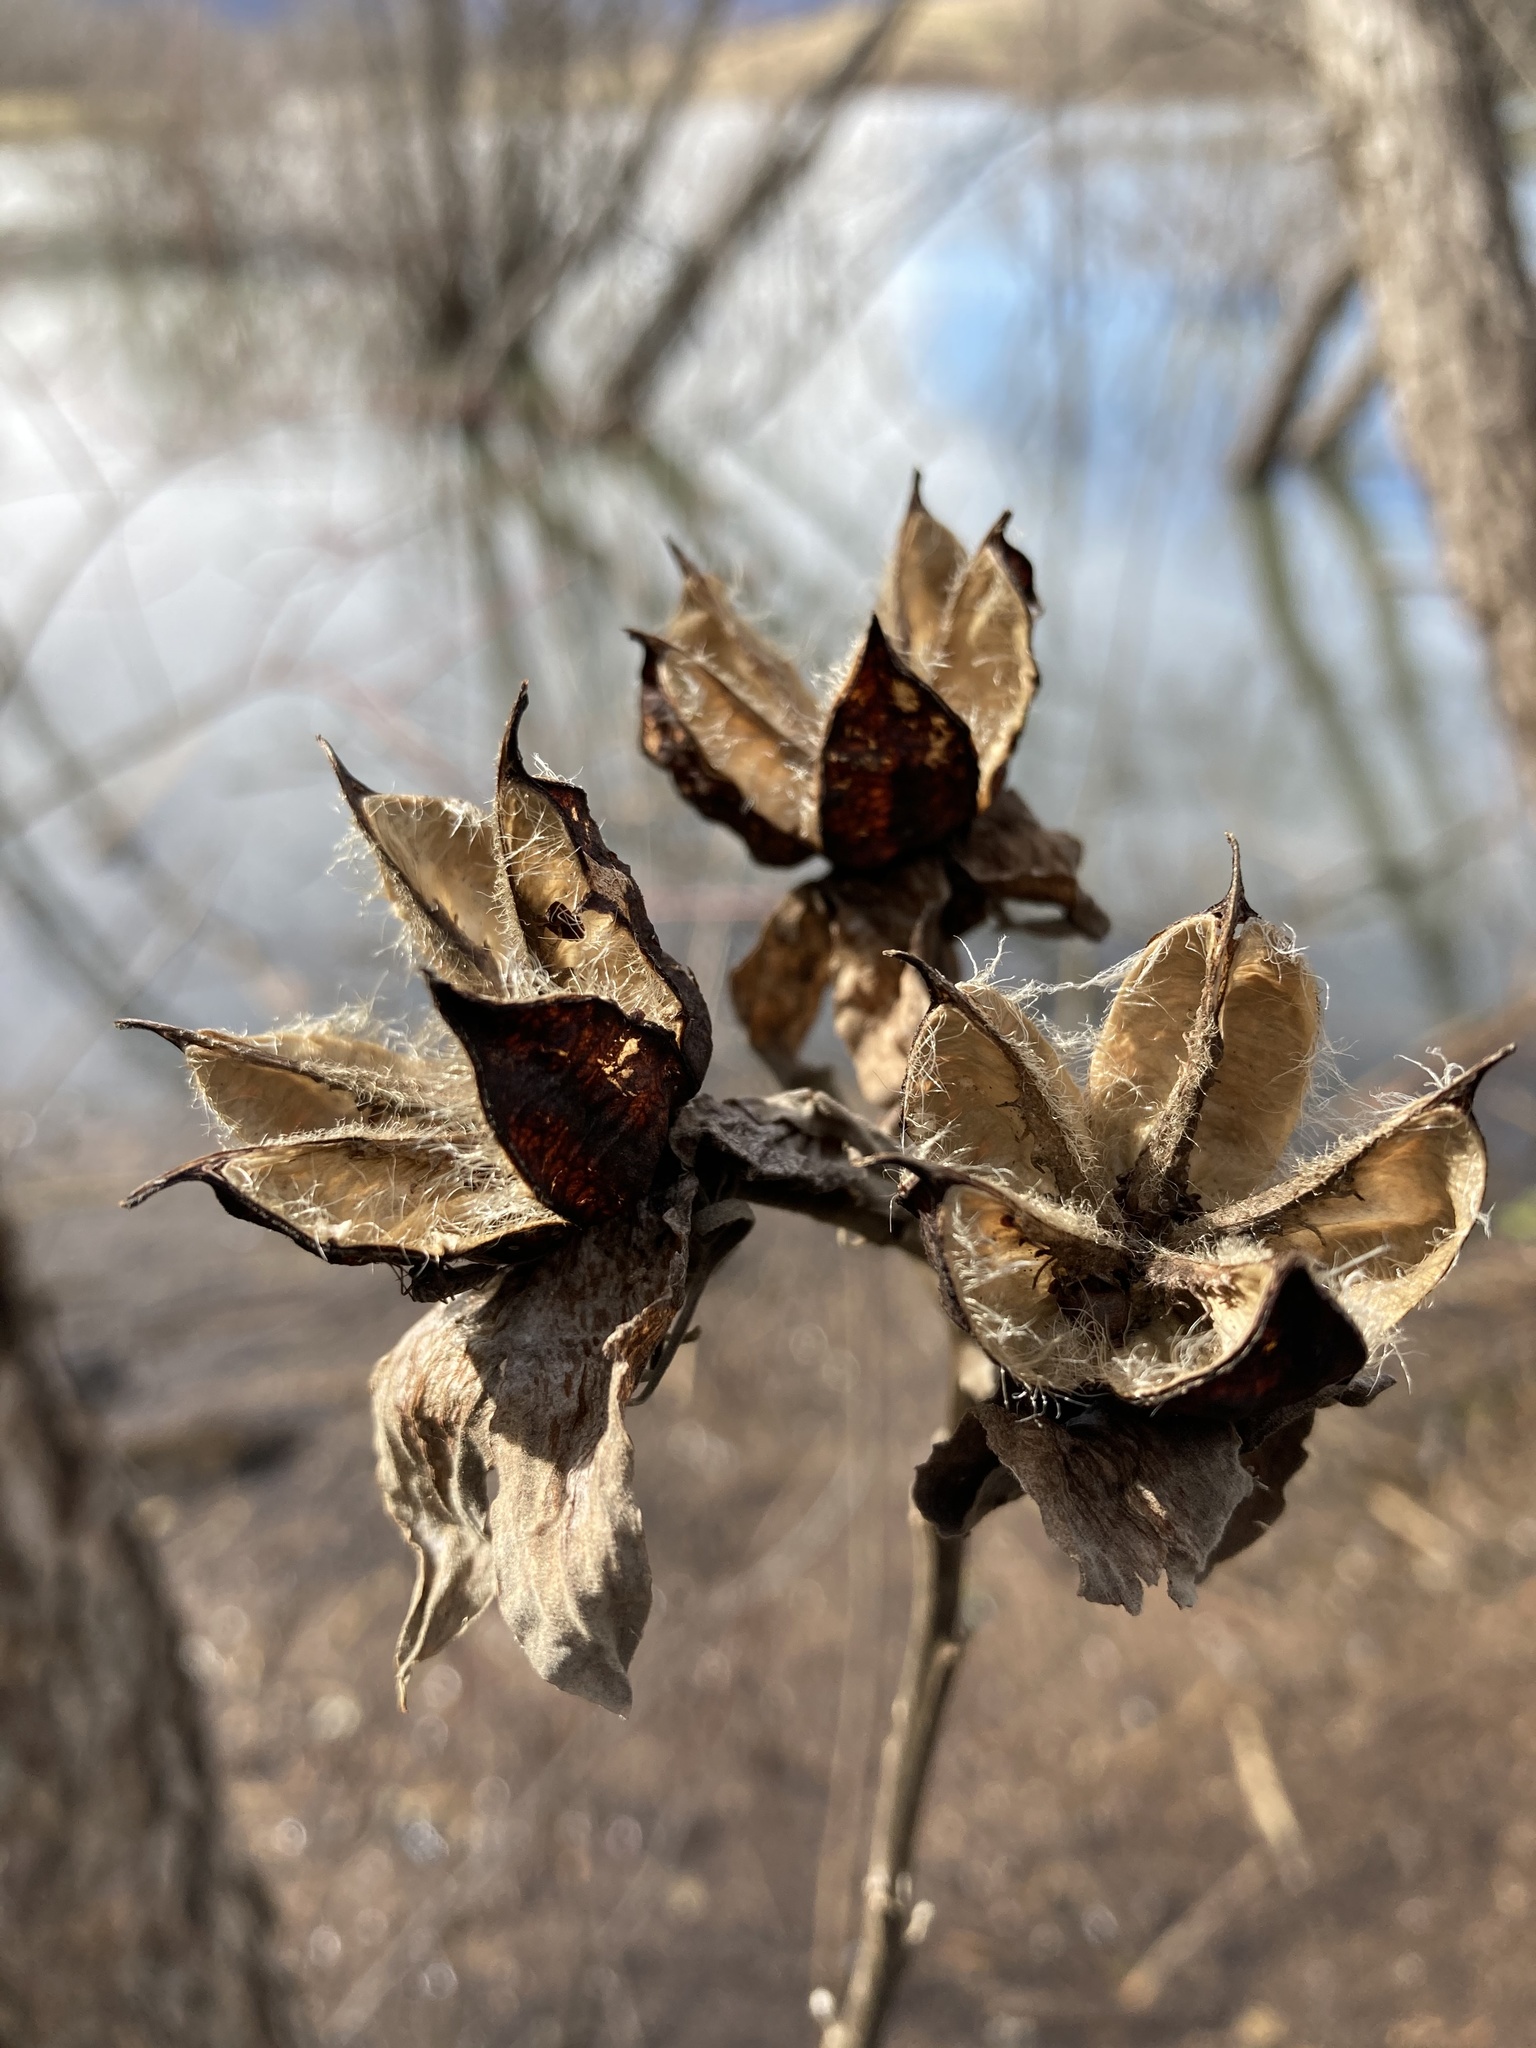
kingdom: Plantae
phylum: Tracheophyta
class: Magnoliopsida
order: Malvales
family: Malvaceae
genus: Hibiscus
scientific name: Hibiscus moscheutos
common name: Common rose-mallow
